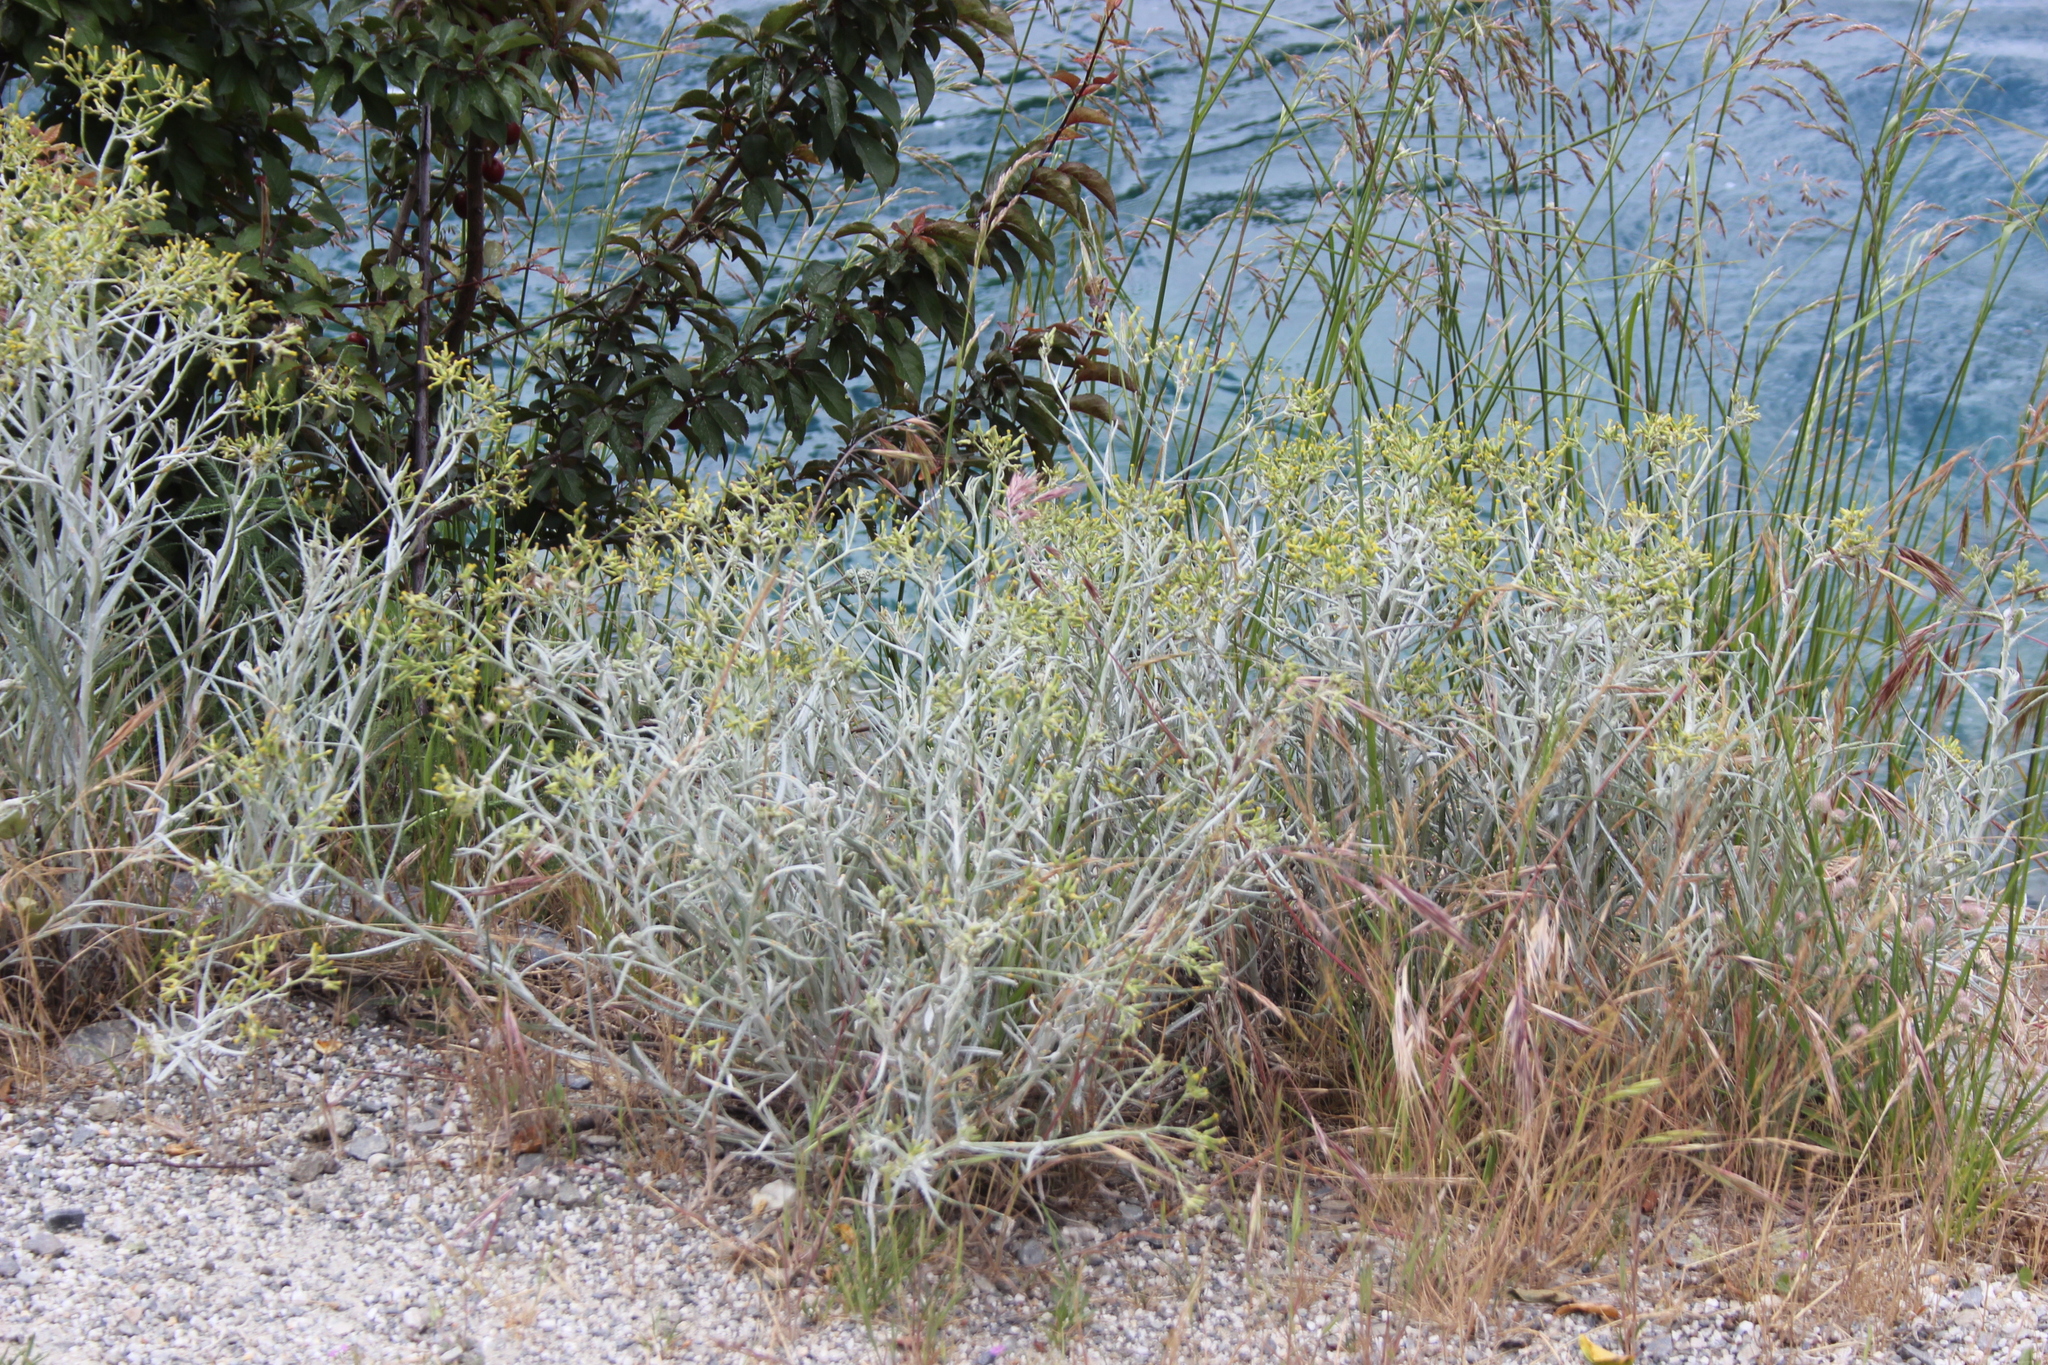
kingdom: Plantae
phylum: Tracheophyta
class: Magnoliopsida
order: Asterales
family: Asteraceae
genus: Senecio
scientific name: Senecio quadridentatus
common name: Cotton fireweed
